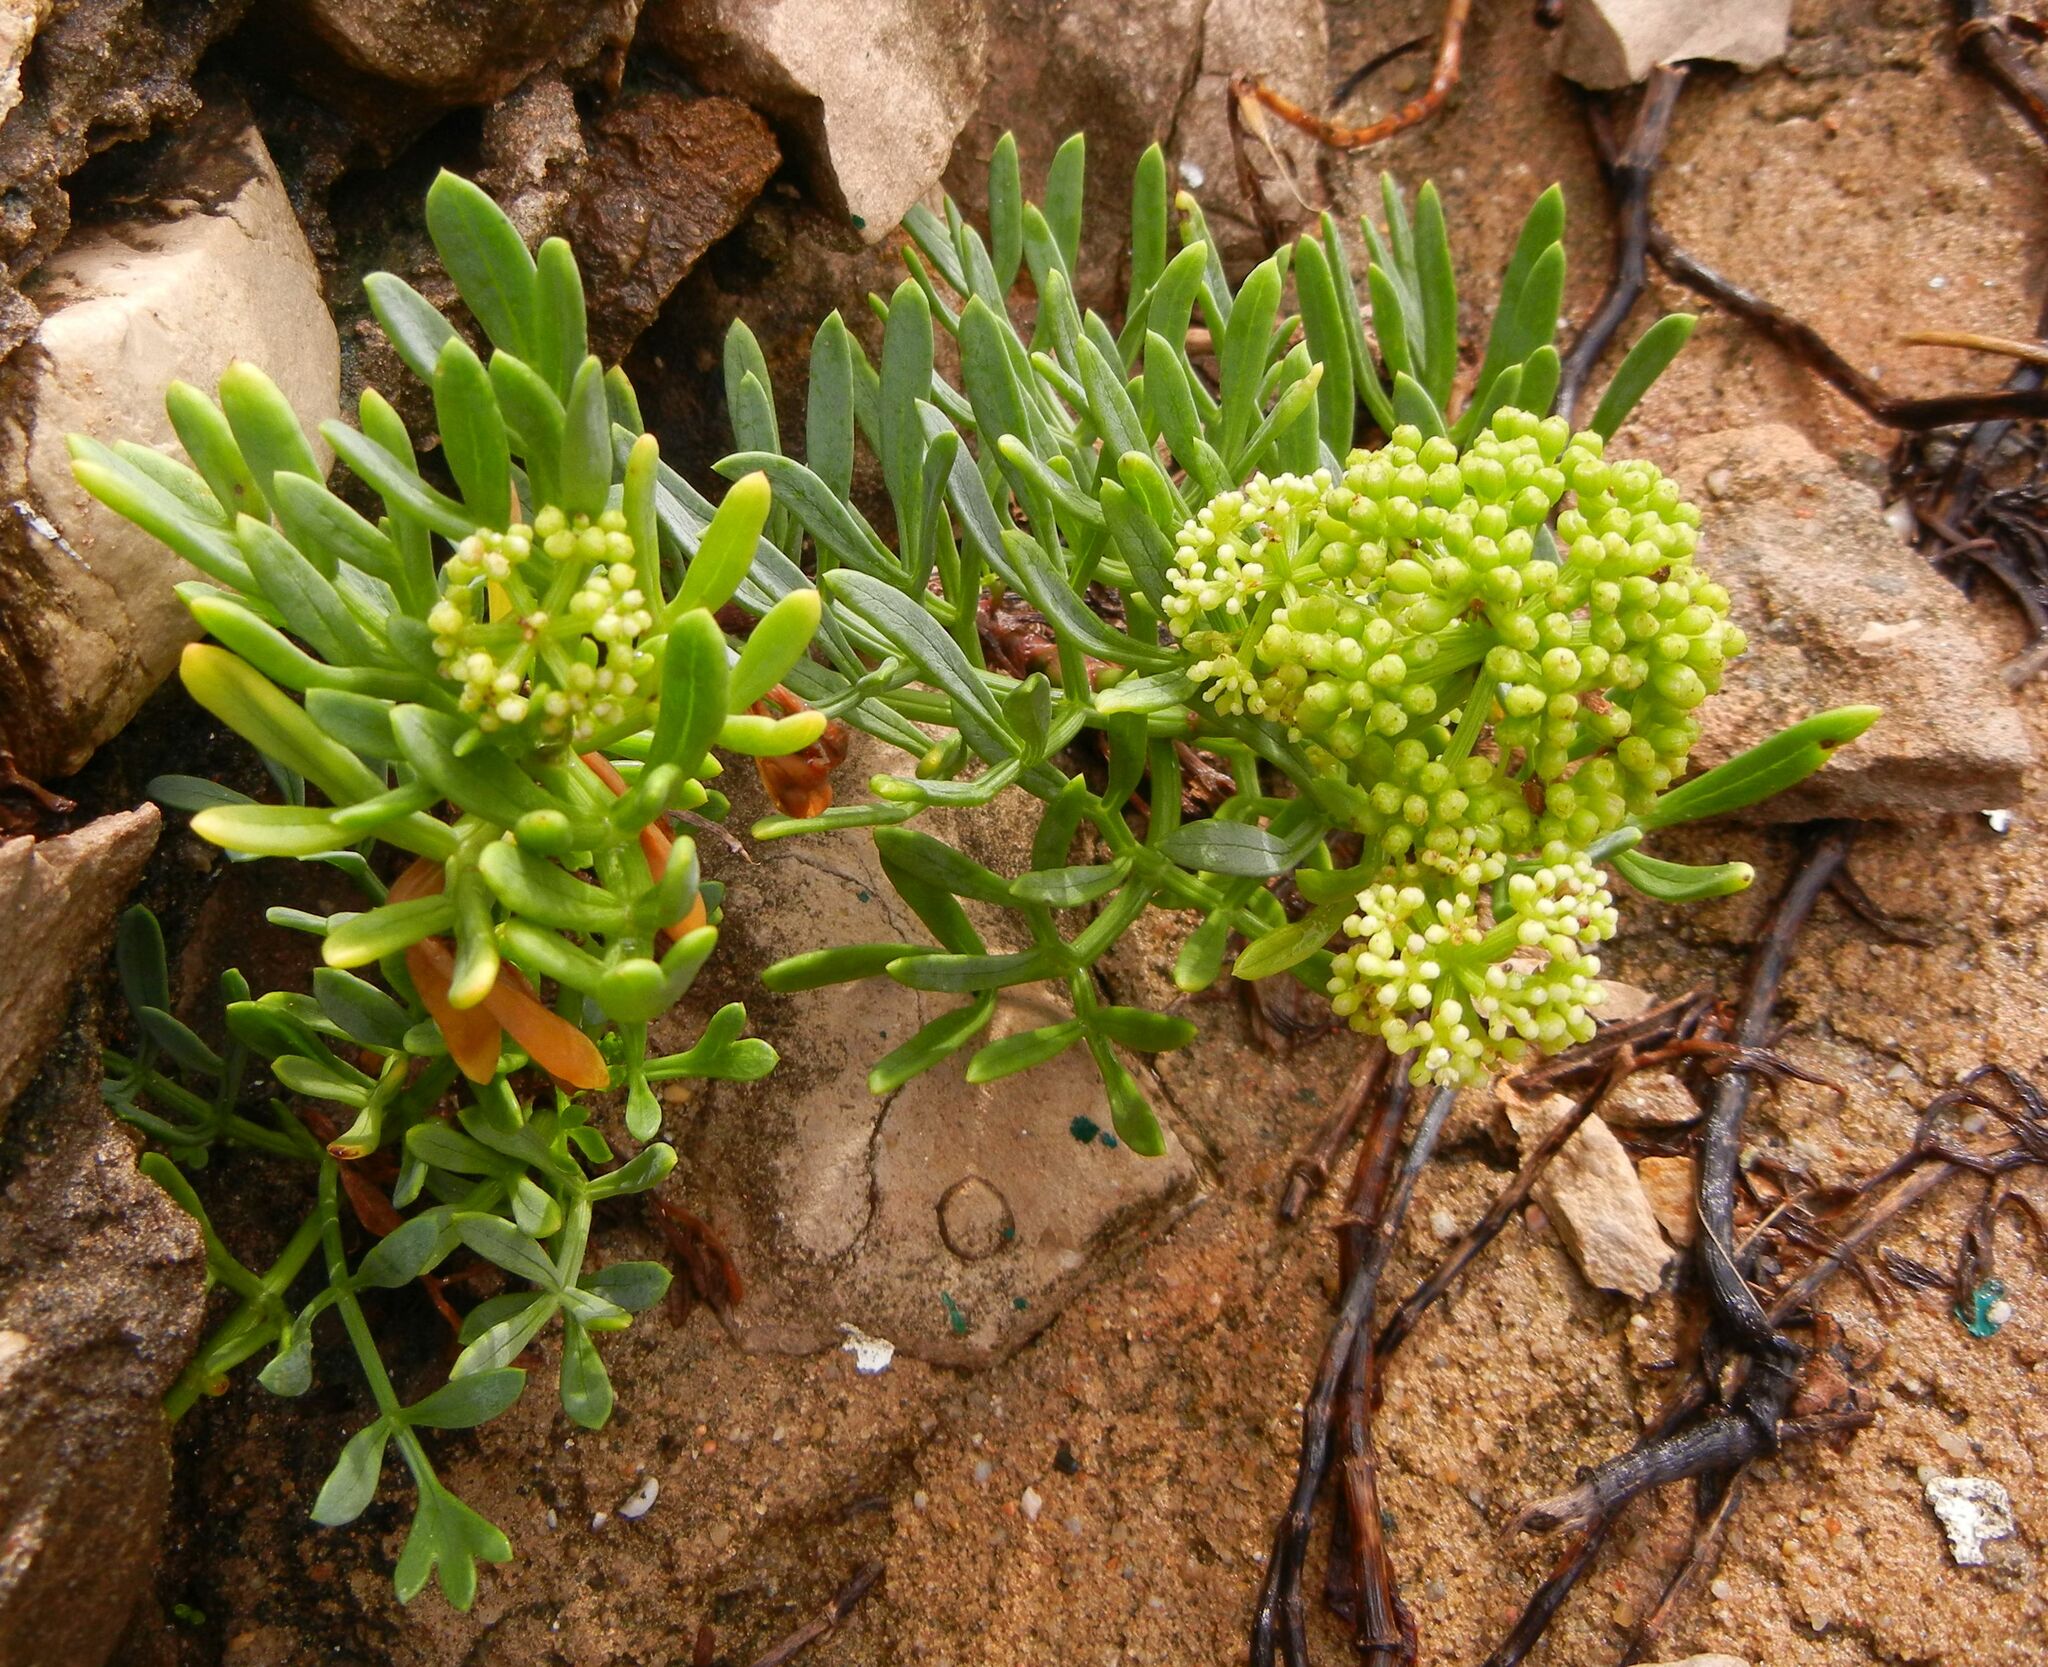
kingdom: Plantae
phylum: Tracheophyta
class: Magnoliopsida
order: Apiales
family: Apiaceae
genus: Crithmum
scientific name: Crithmum maritimum
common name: Rock samphire
